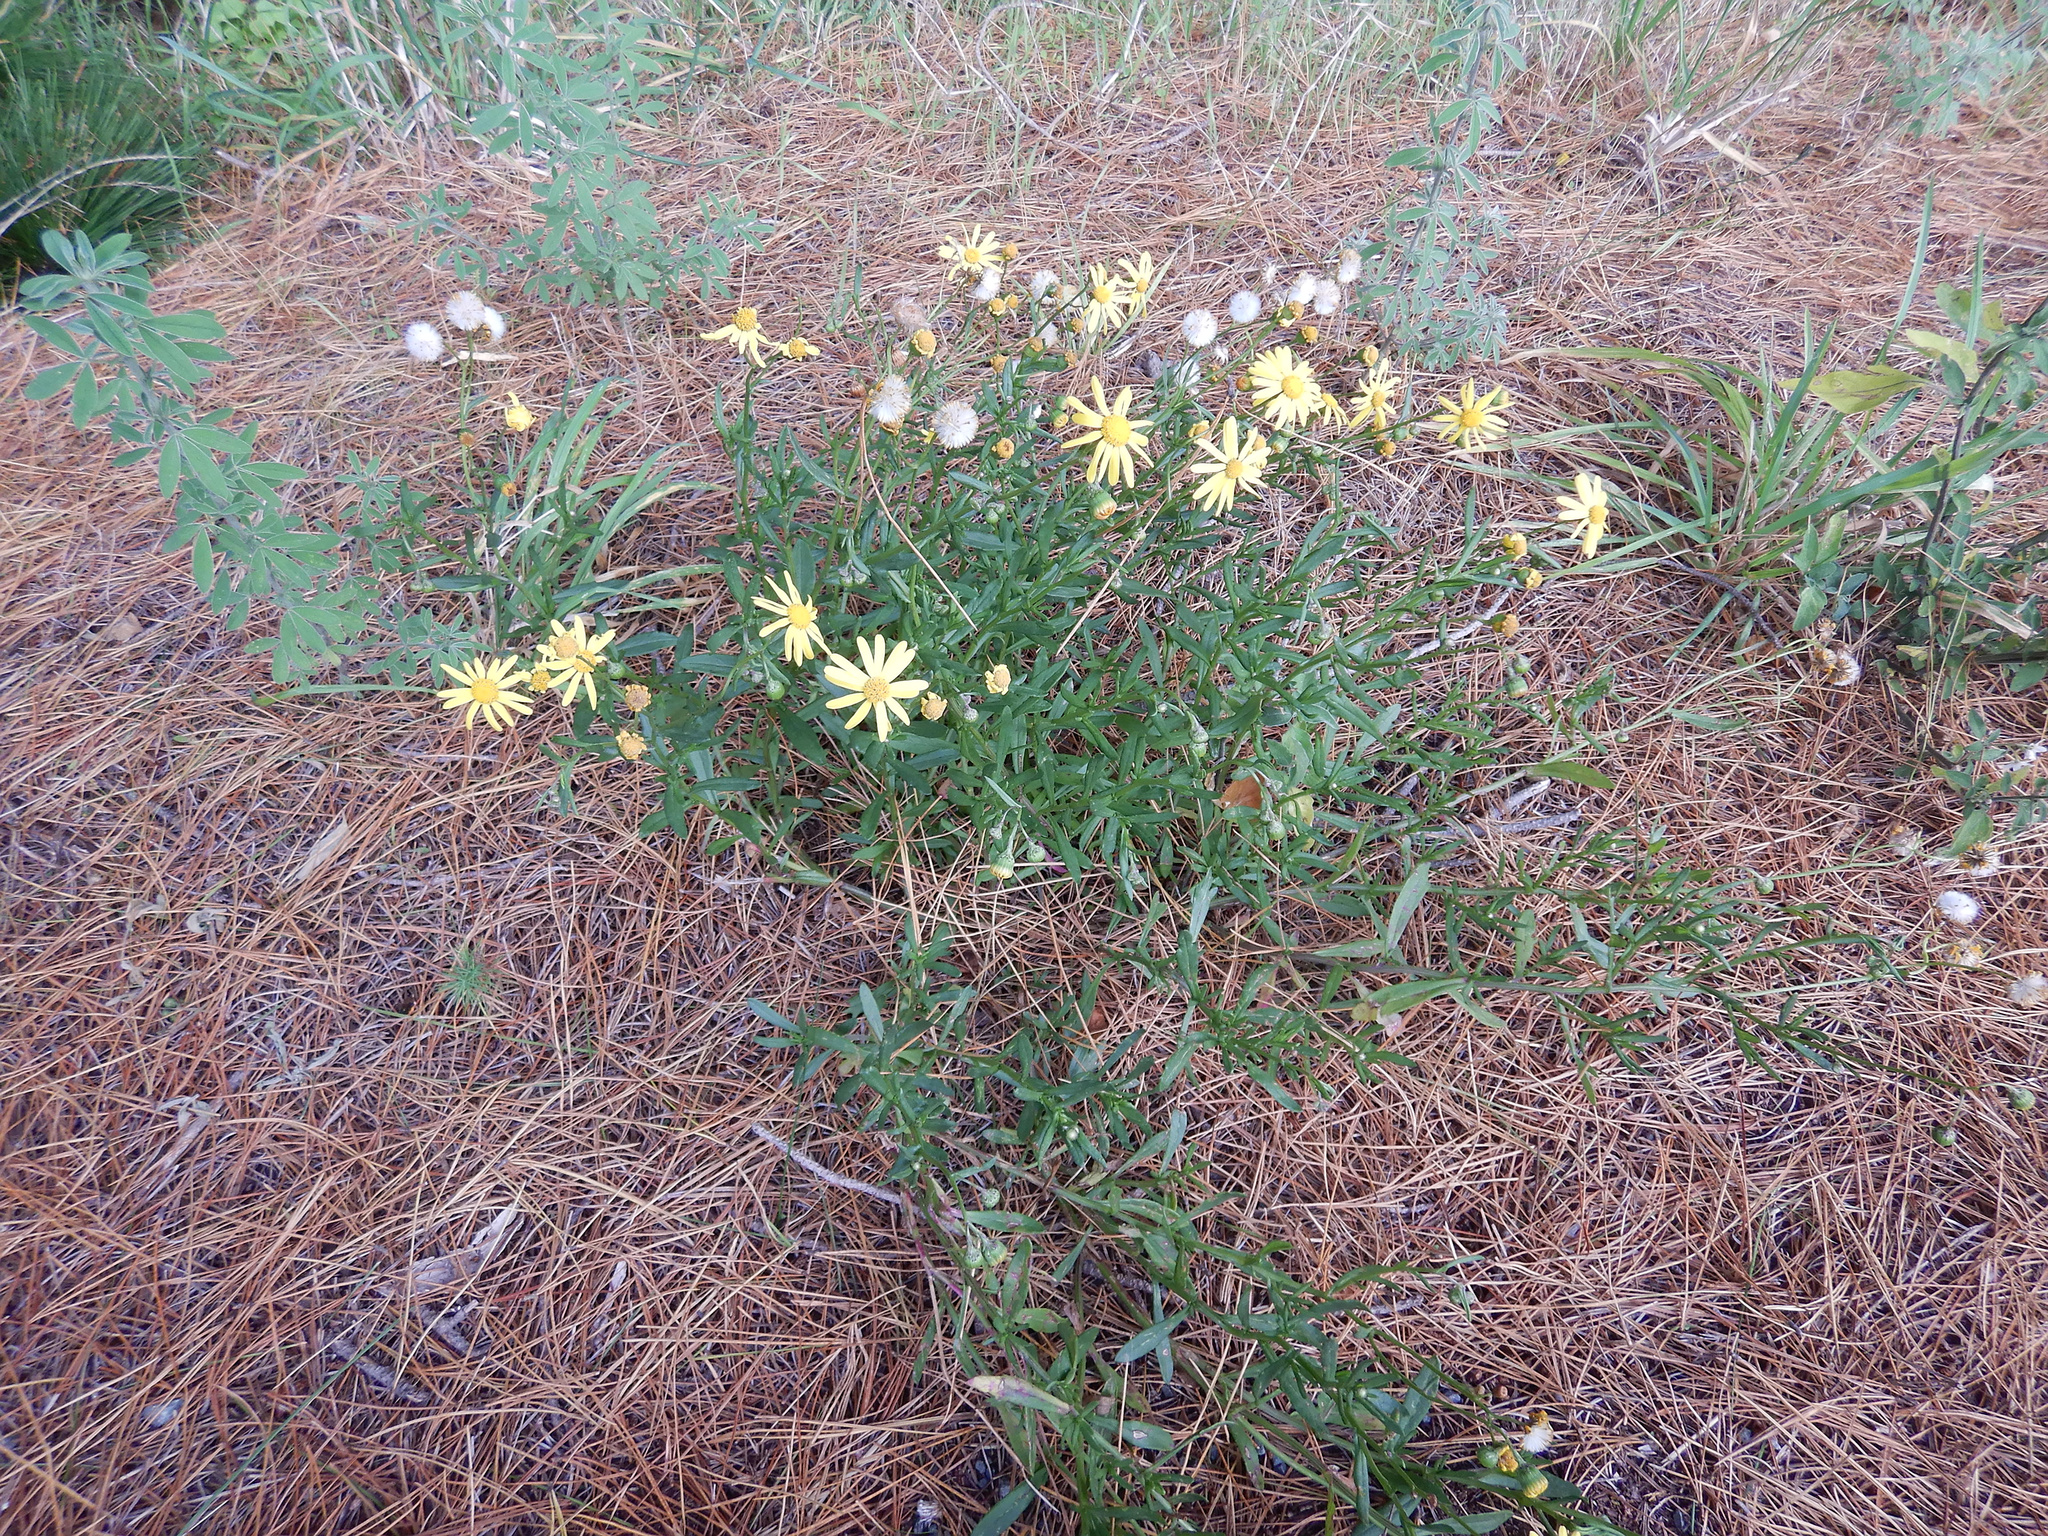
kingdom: Plantae
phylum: Tracheophyta
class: Magnoliopsida
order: Asterales
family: Asteraceae
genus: Senecio
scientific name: Senecio skirrhodon
